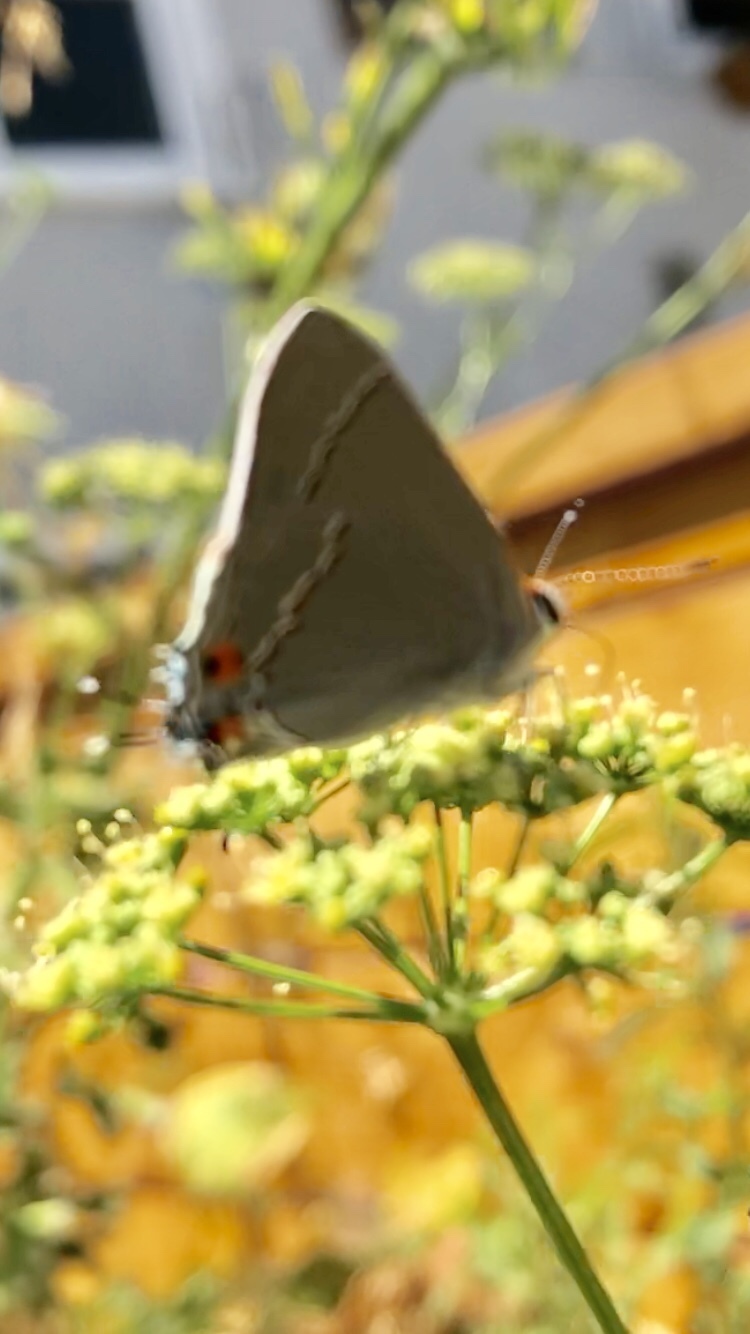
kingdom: Animalia
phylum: Arthropoda
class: Insecta
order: Lepidoptera
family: Lycaenidae
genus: Strymon
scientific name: Strymon melinus
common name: Gray hairstreak
